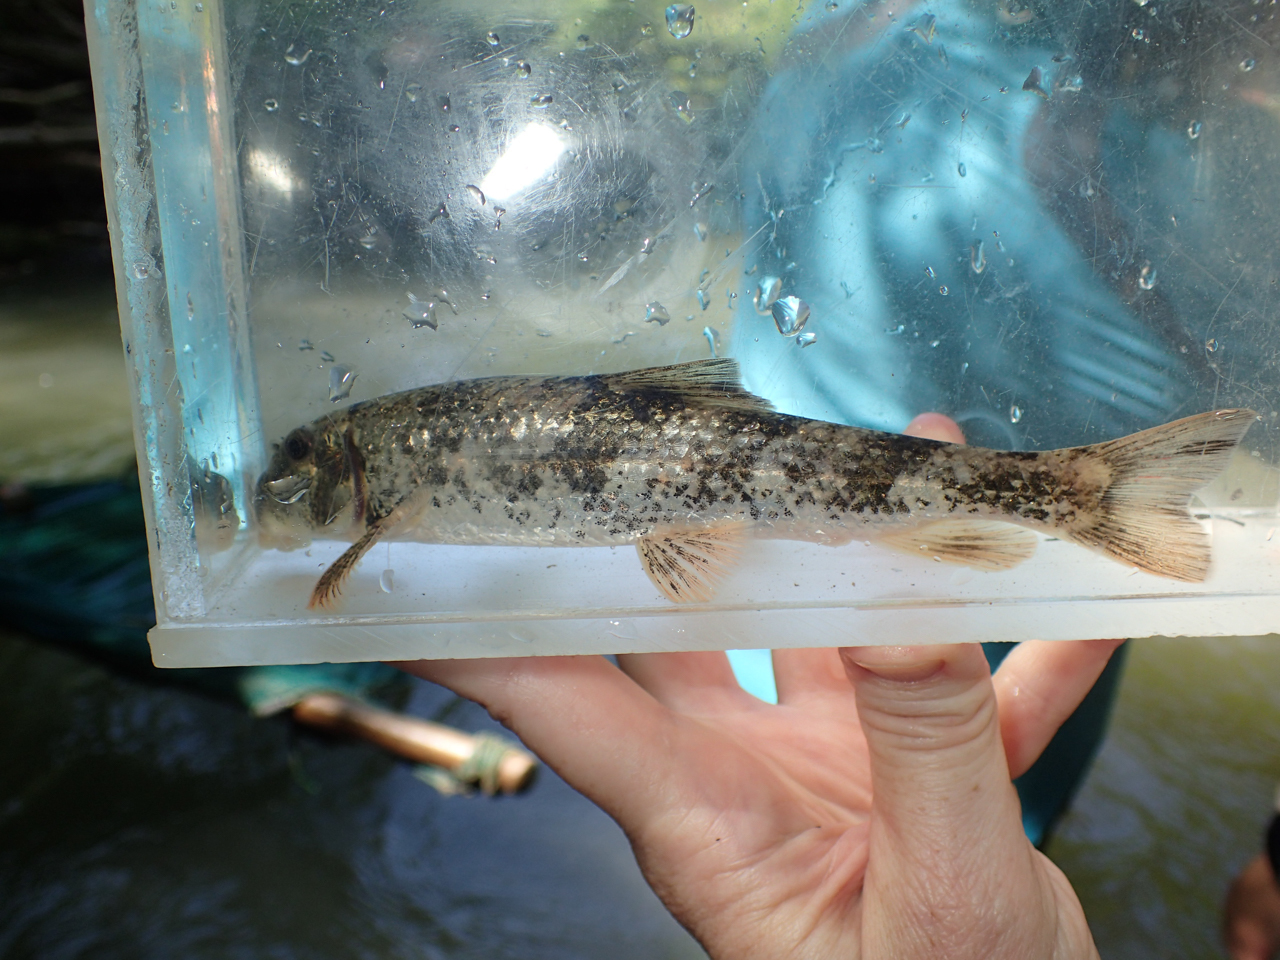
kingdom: Animalia
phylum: Chordata
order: Cypriniformes
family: Catostomidae
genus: Hypentelium
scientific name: Hypentelium etowanum
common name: Alabama hog sucker
